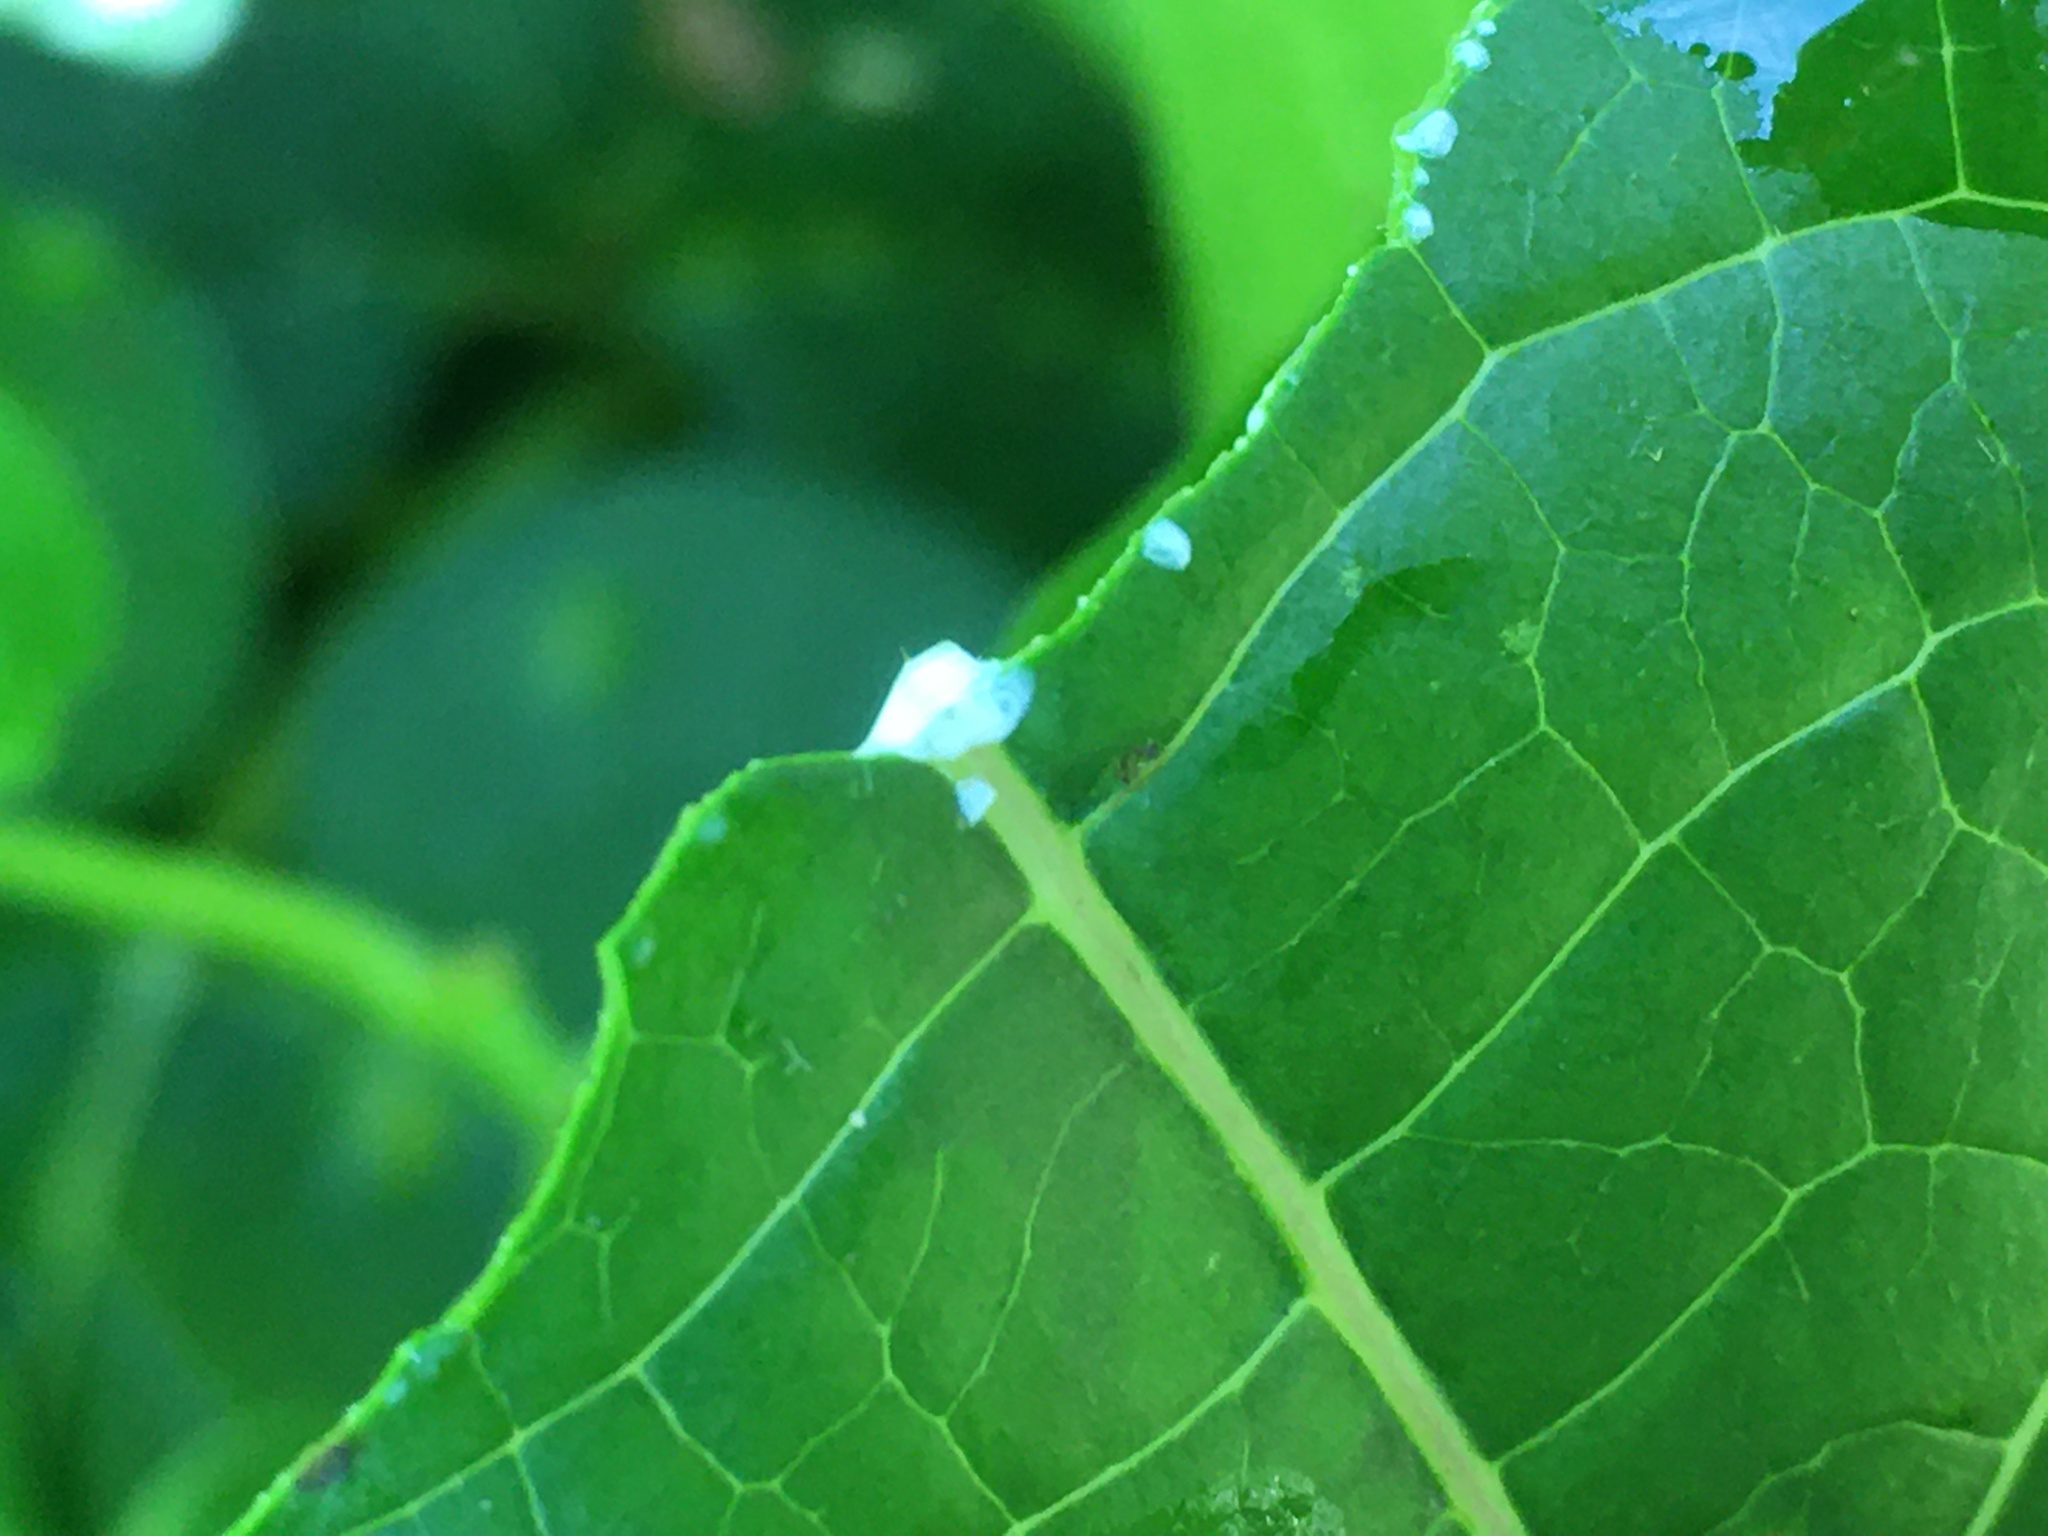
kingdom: Plantae
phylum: Tracheophyta
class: Magnoliopsida
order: Gentianales
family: Apocynaceae
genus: Gonolobus
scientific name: Gonolobus suberosus
